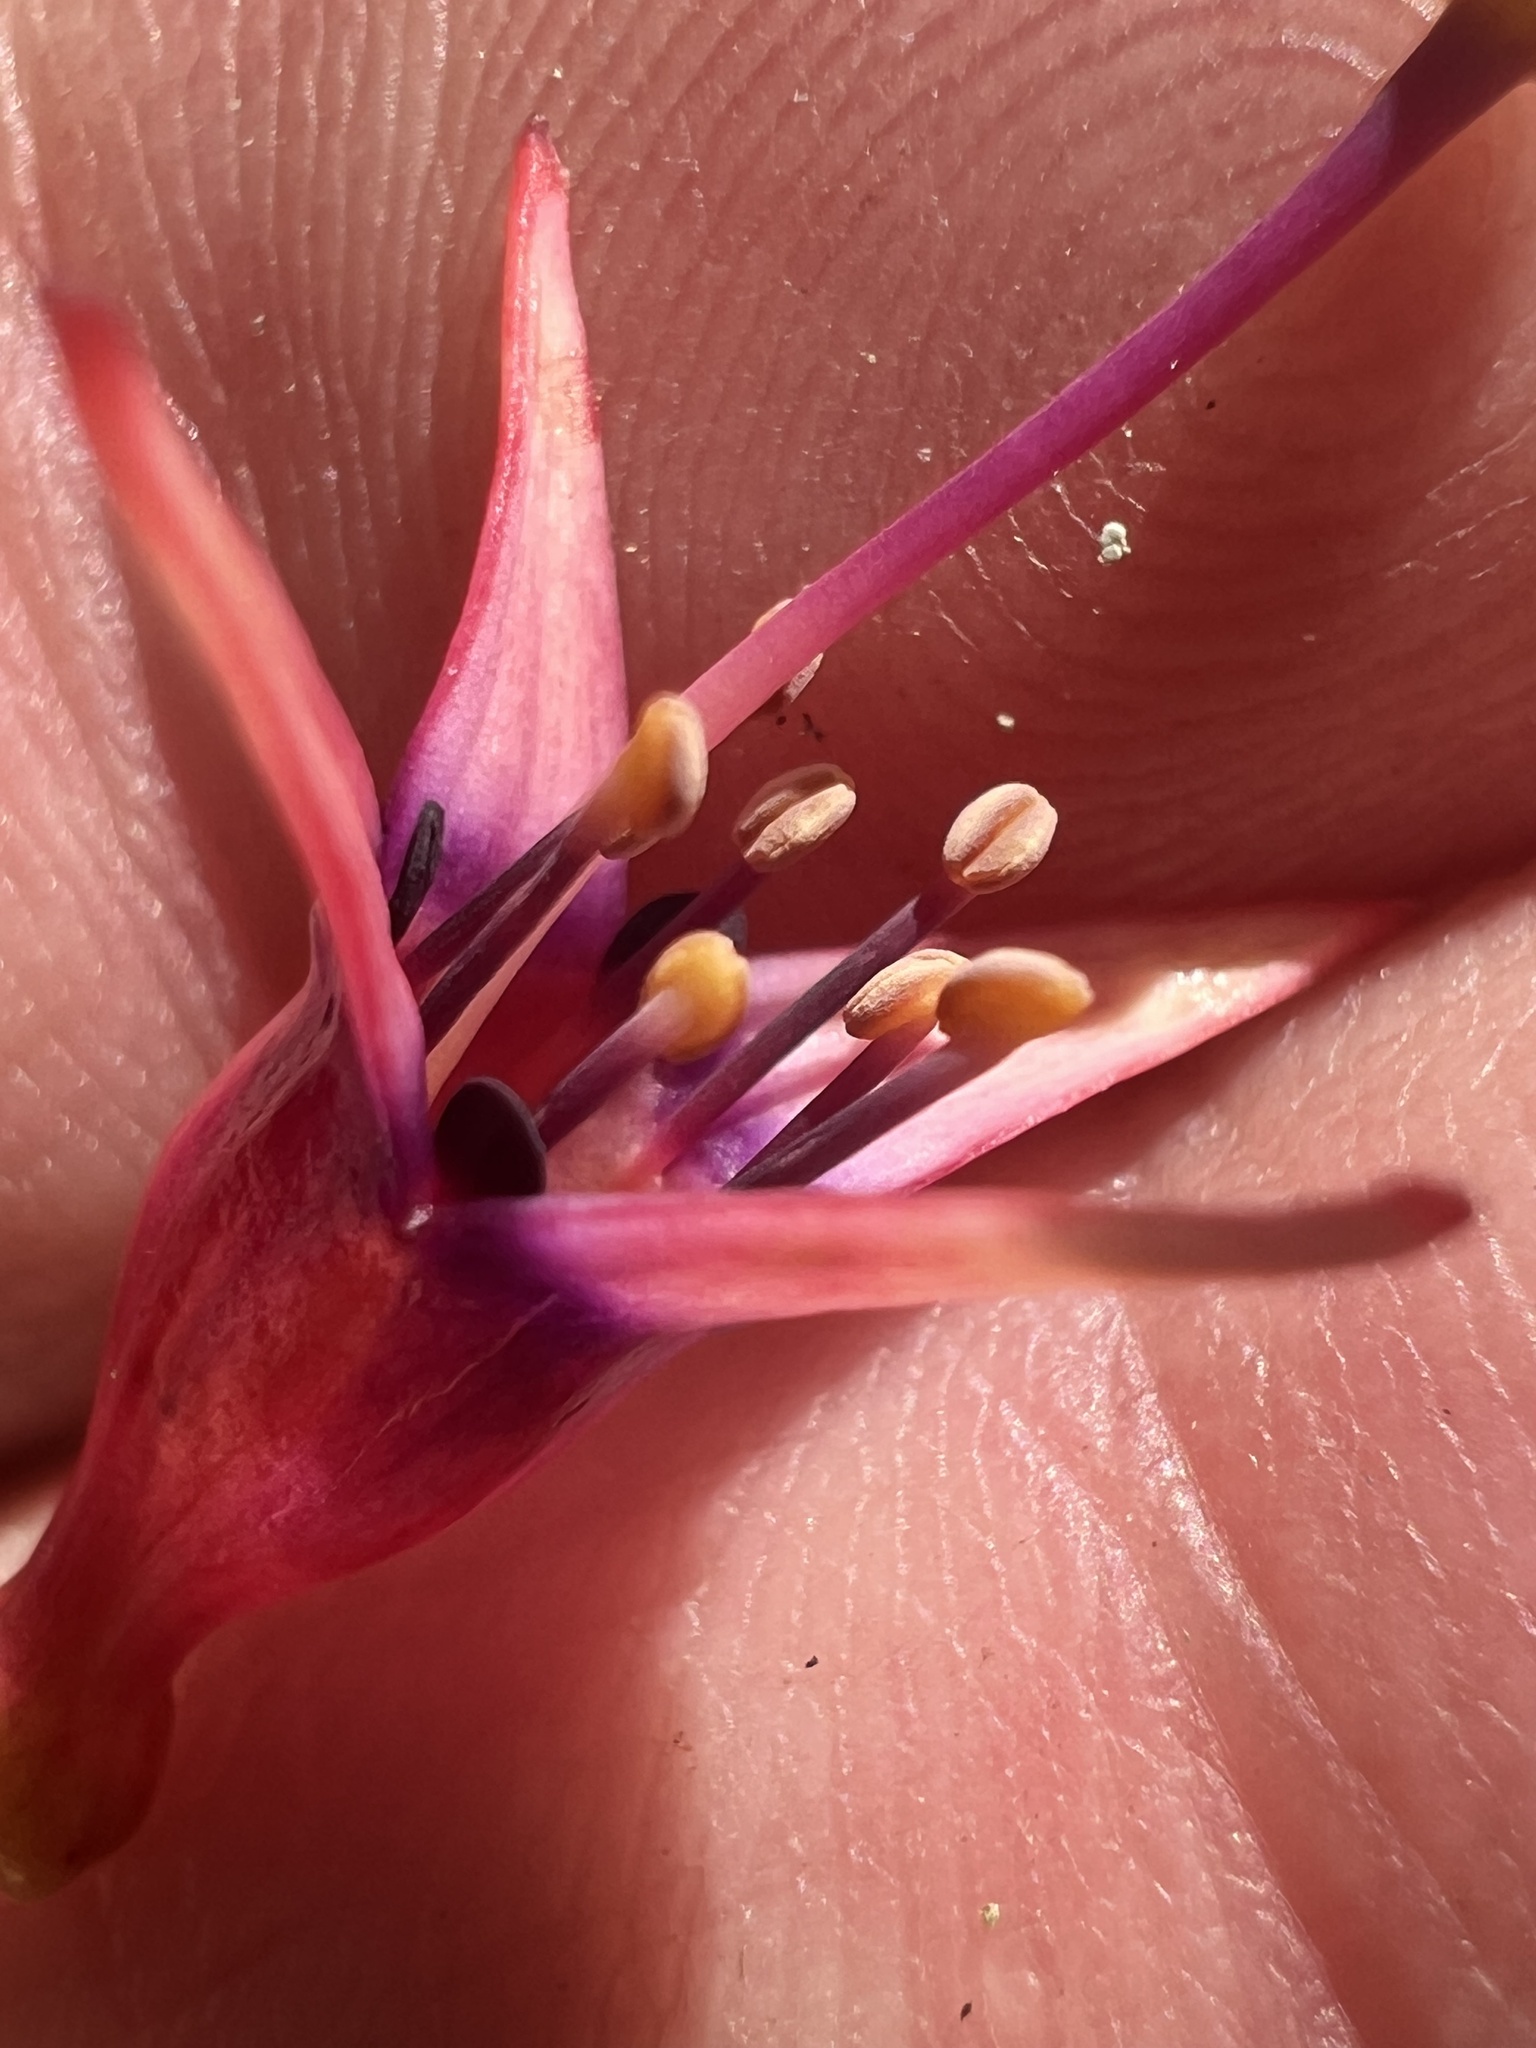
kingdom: Plantae
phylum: Tracheophyta
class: Magnoliopsida
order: Myrtales
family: Onagraceae
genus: Fuchsia
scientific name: Fuchsia excorticata
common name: Tree fuchsia
